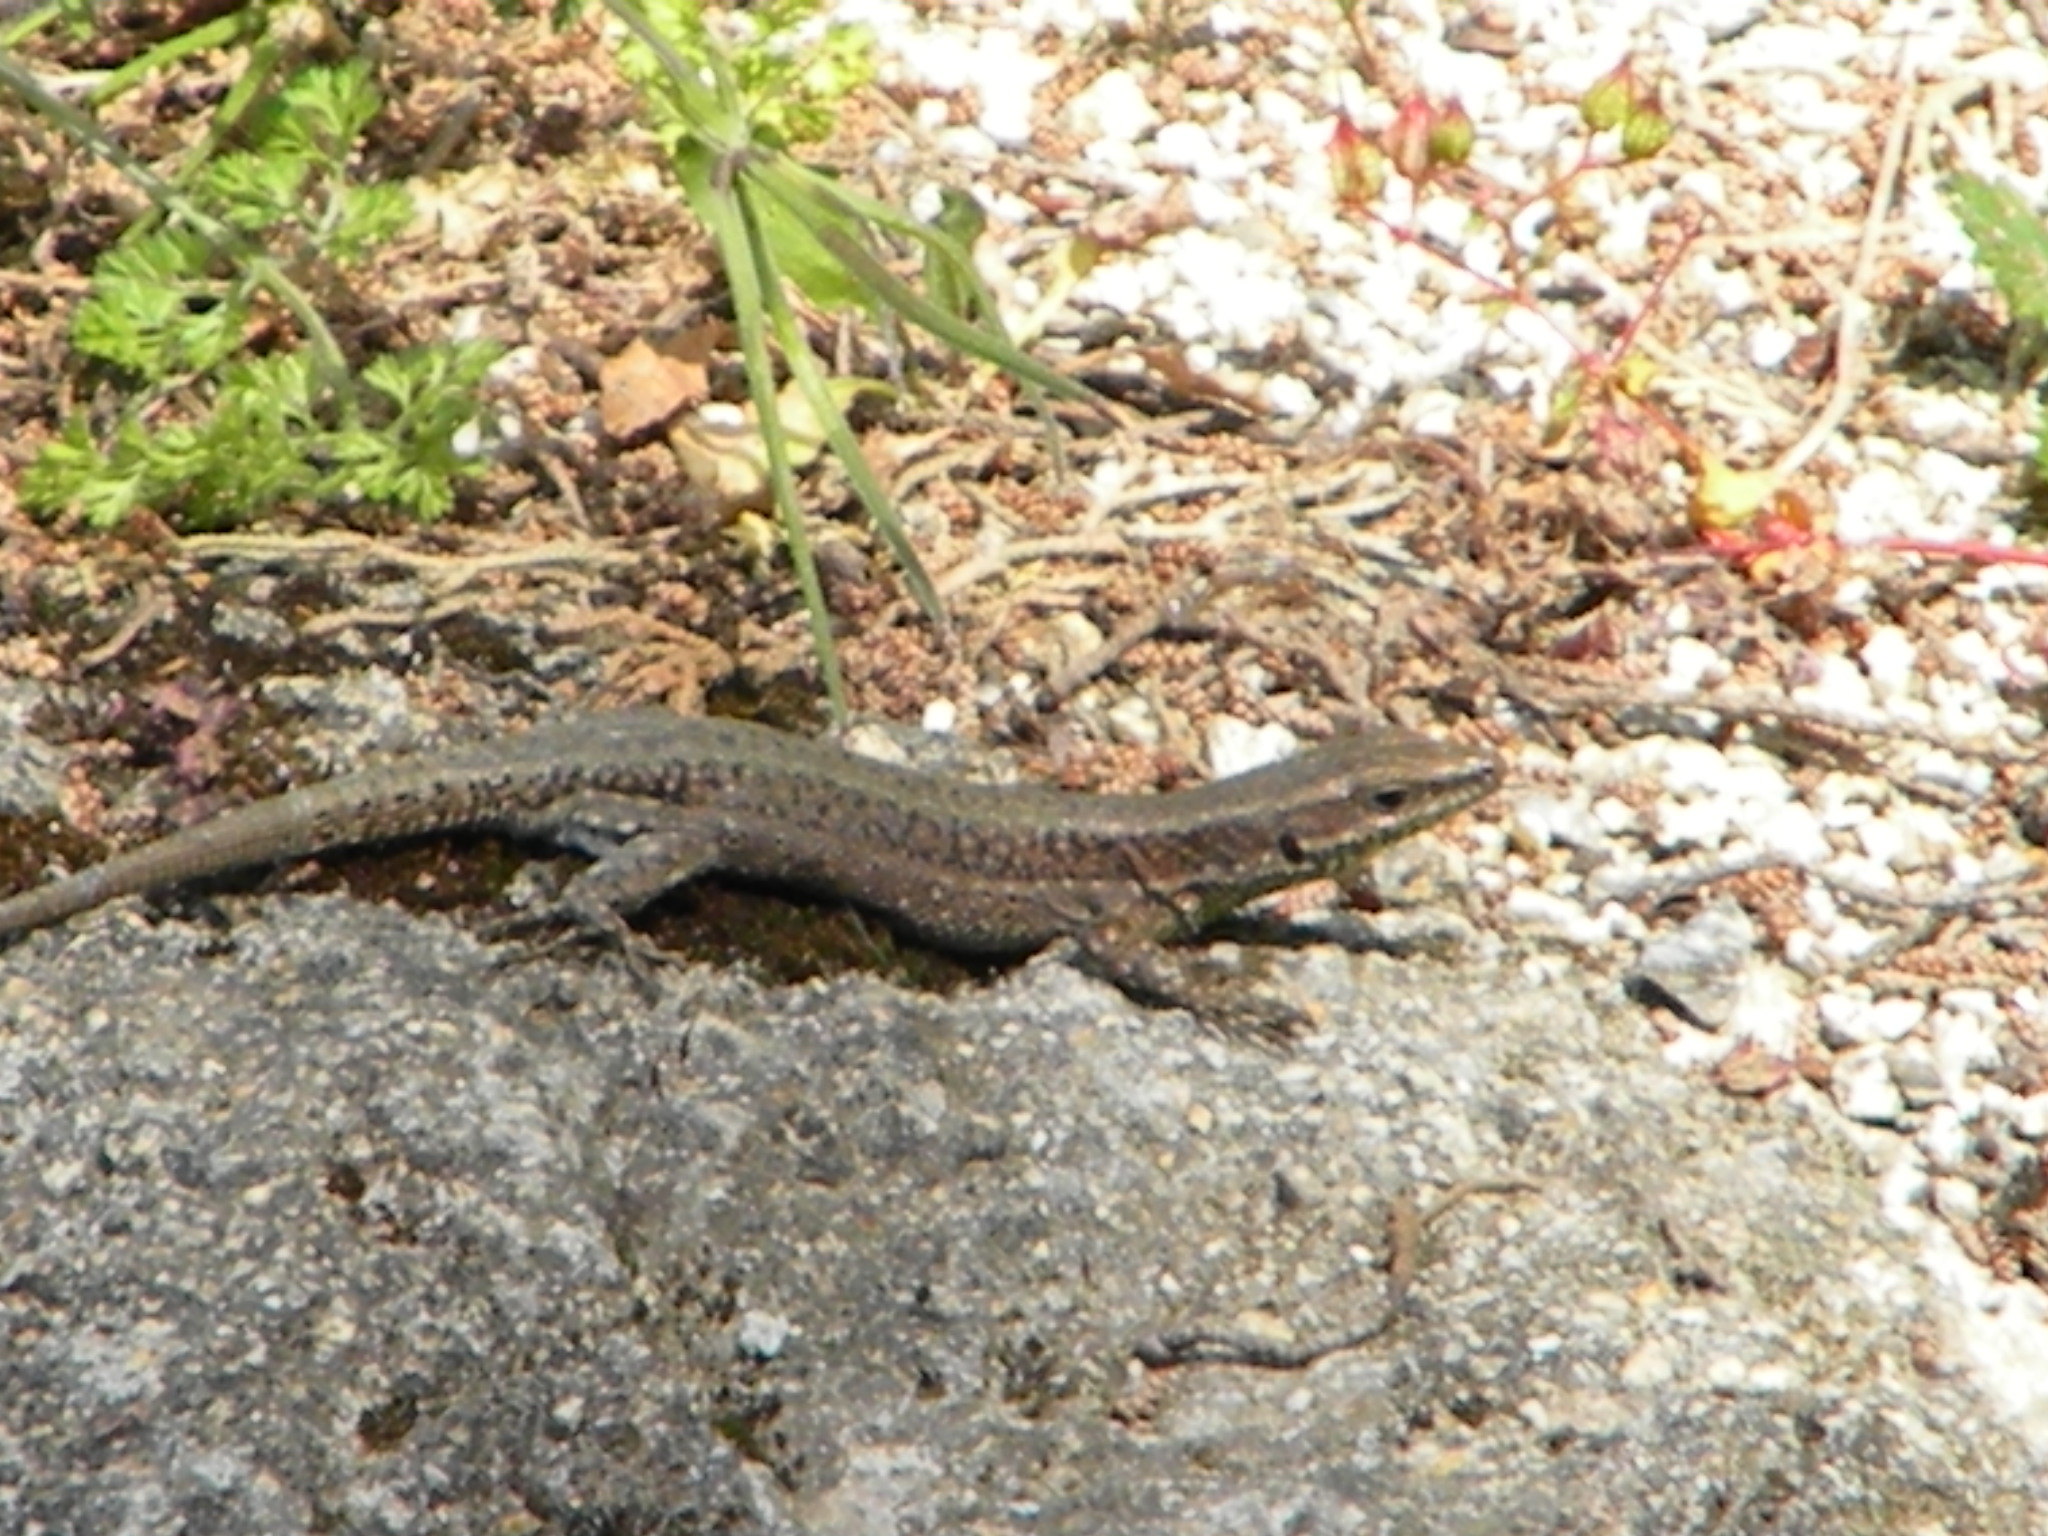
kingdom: Animalia
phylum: Chordata
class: Squamata
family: Lacertidae
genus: Anatololacerta
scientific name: Anatololacerta anatolica
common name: Anatolian rock lizard
